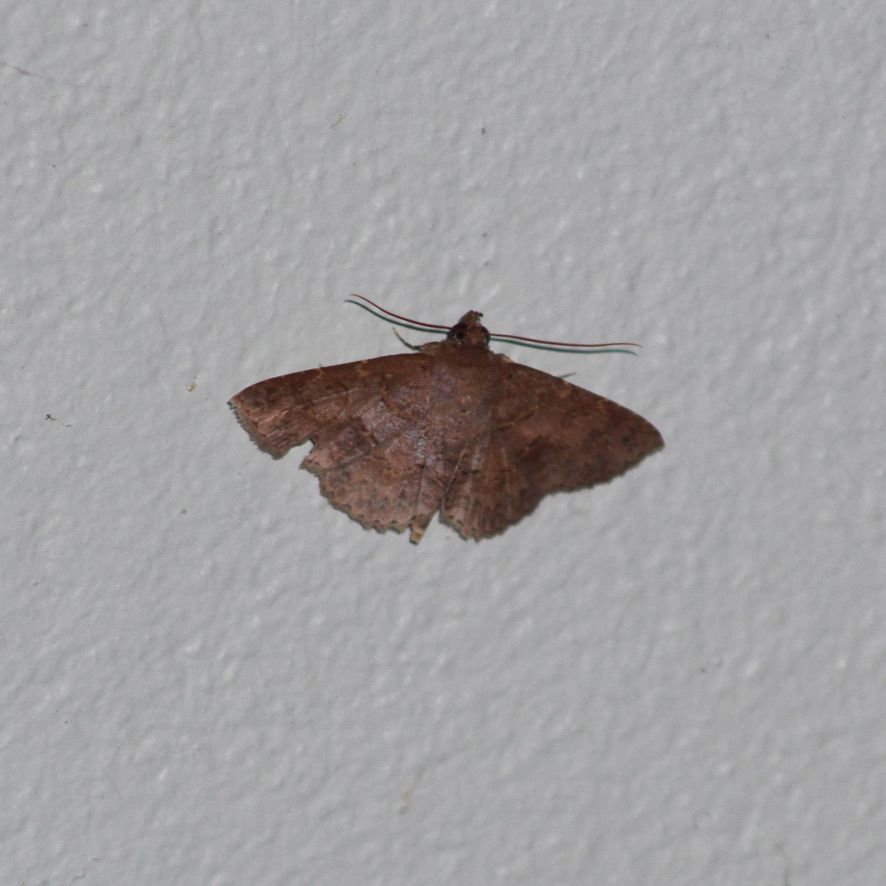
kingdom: Animalia
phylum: Arthropoda
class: Insecta
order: Lepidoptera
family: Erebidae
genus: Antiblemma
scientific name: Antiblemma mundicola
